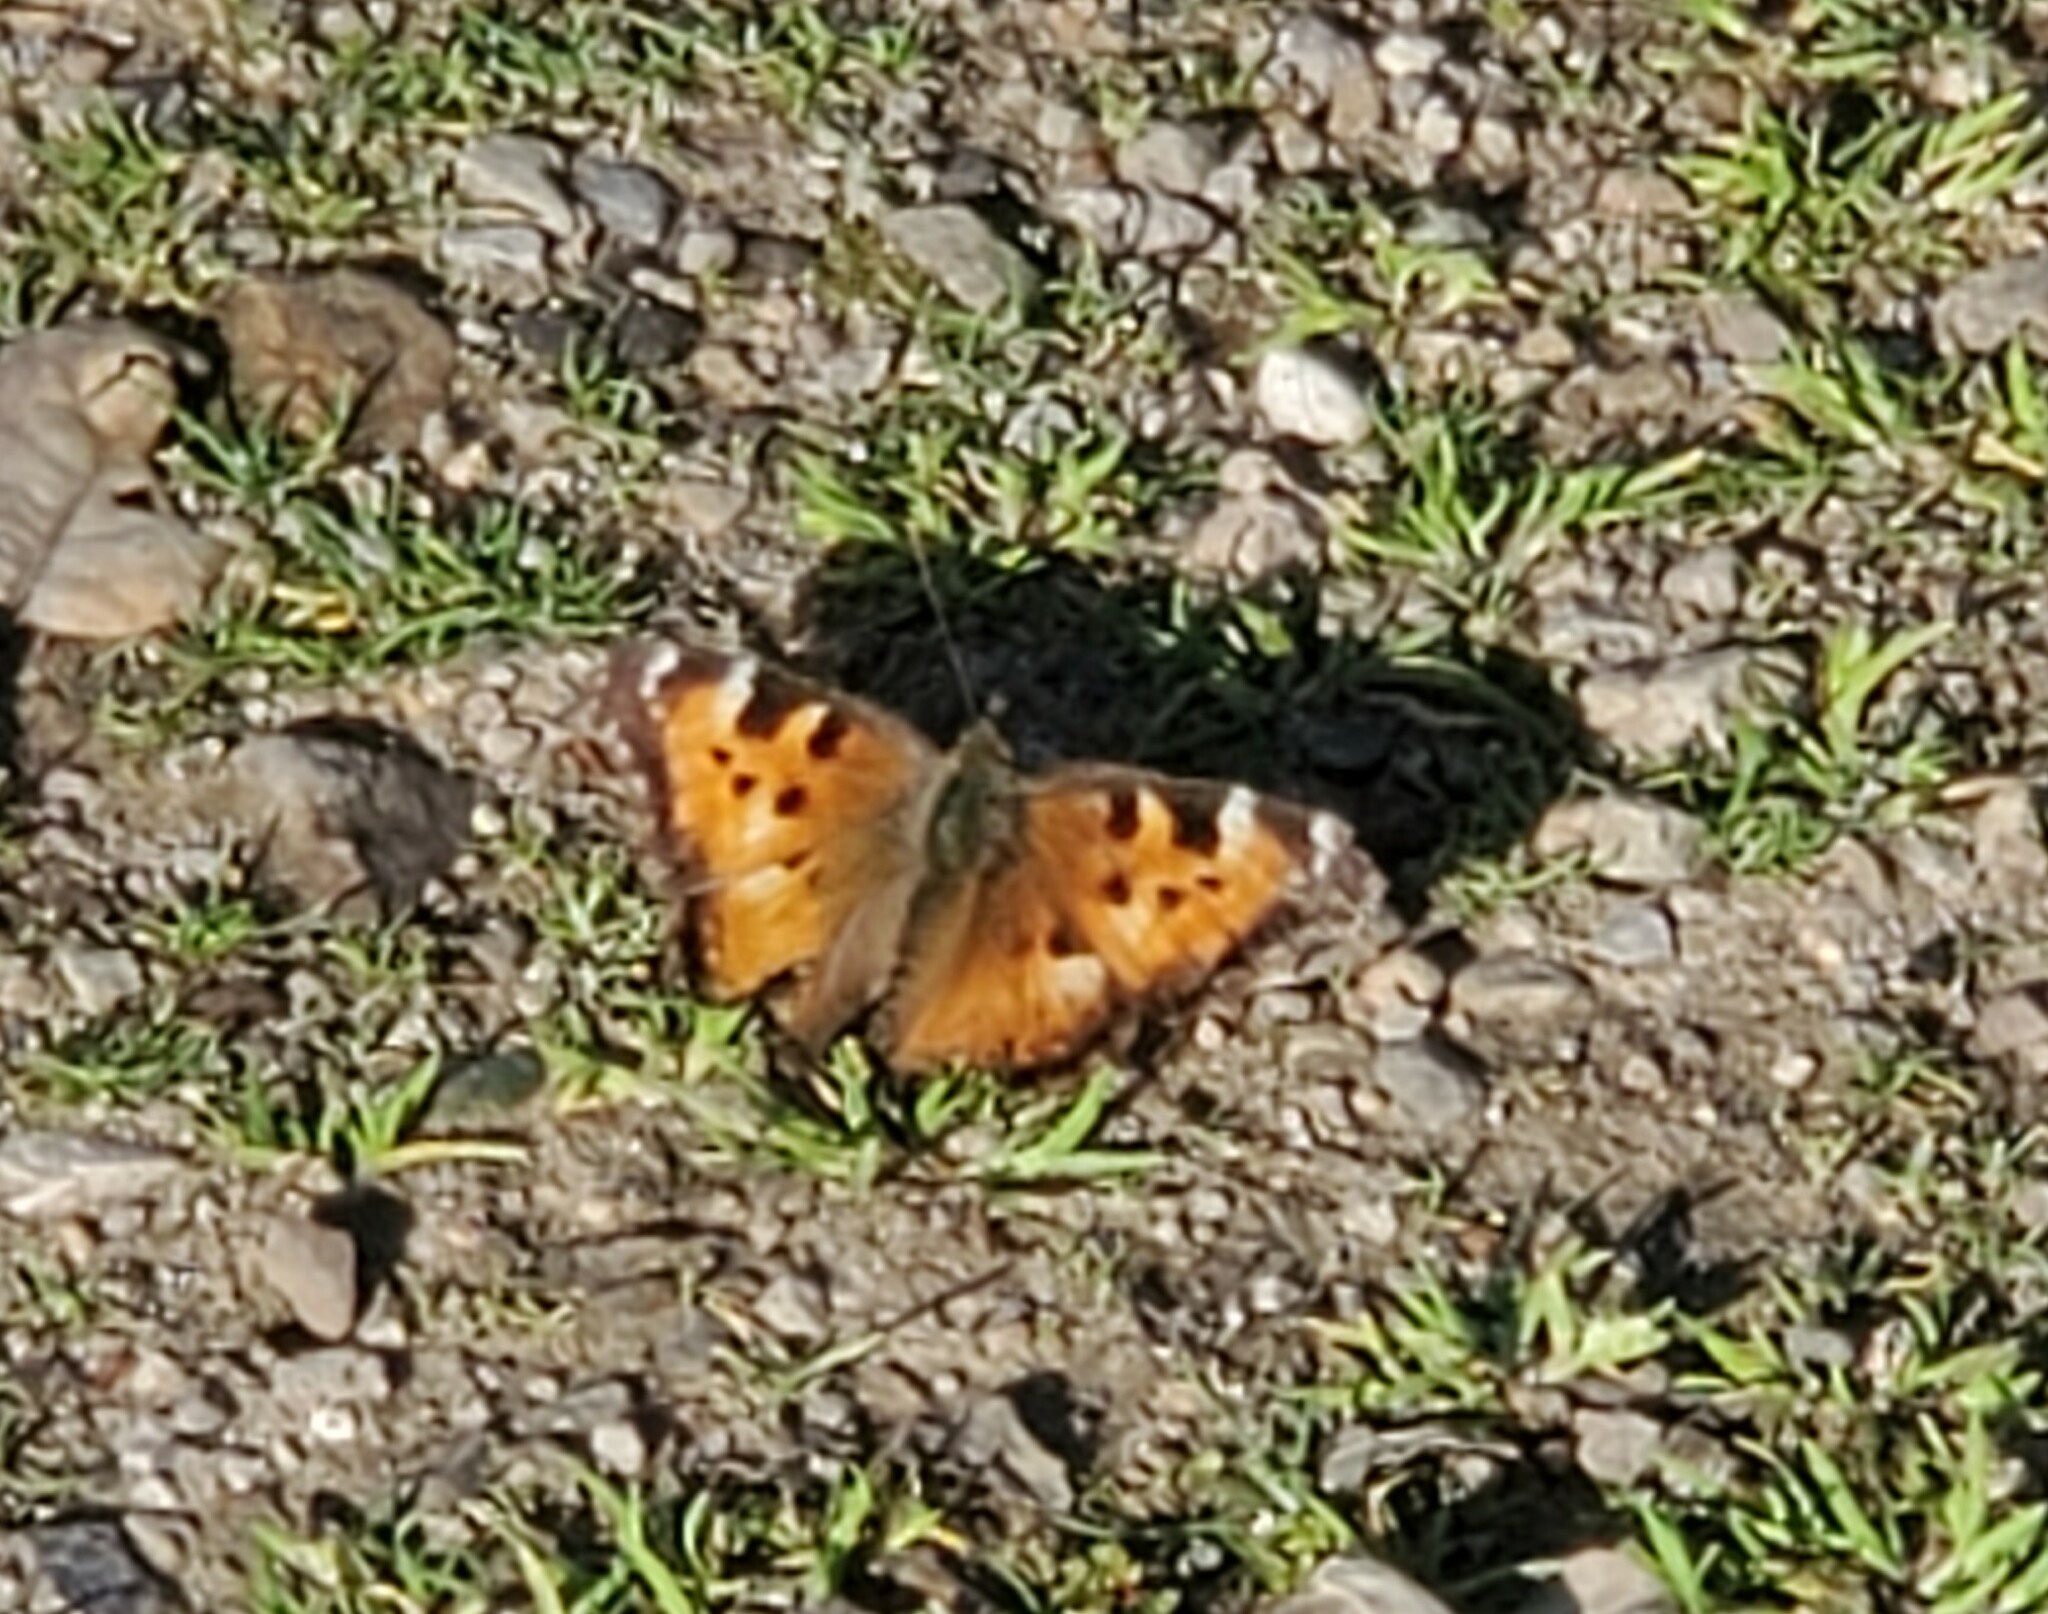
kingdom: Animalia
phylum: Arthropoda
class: Insecta
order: Lepidoptera
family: Nymphalidae
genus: Nymphalis
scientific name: Nymphalis californica
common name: California tortoiseshell
